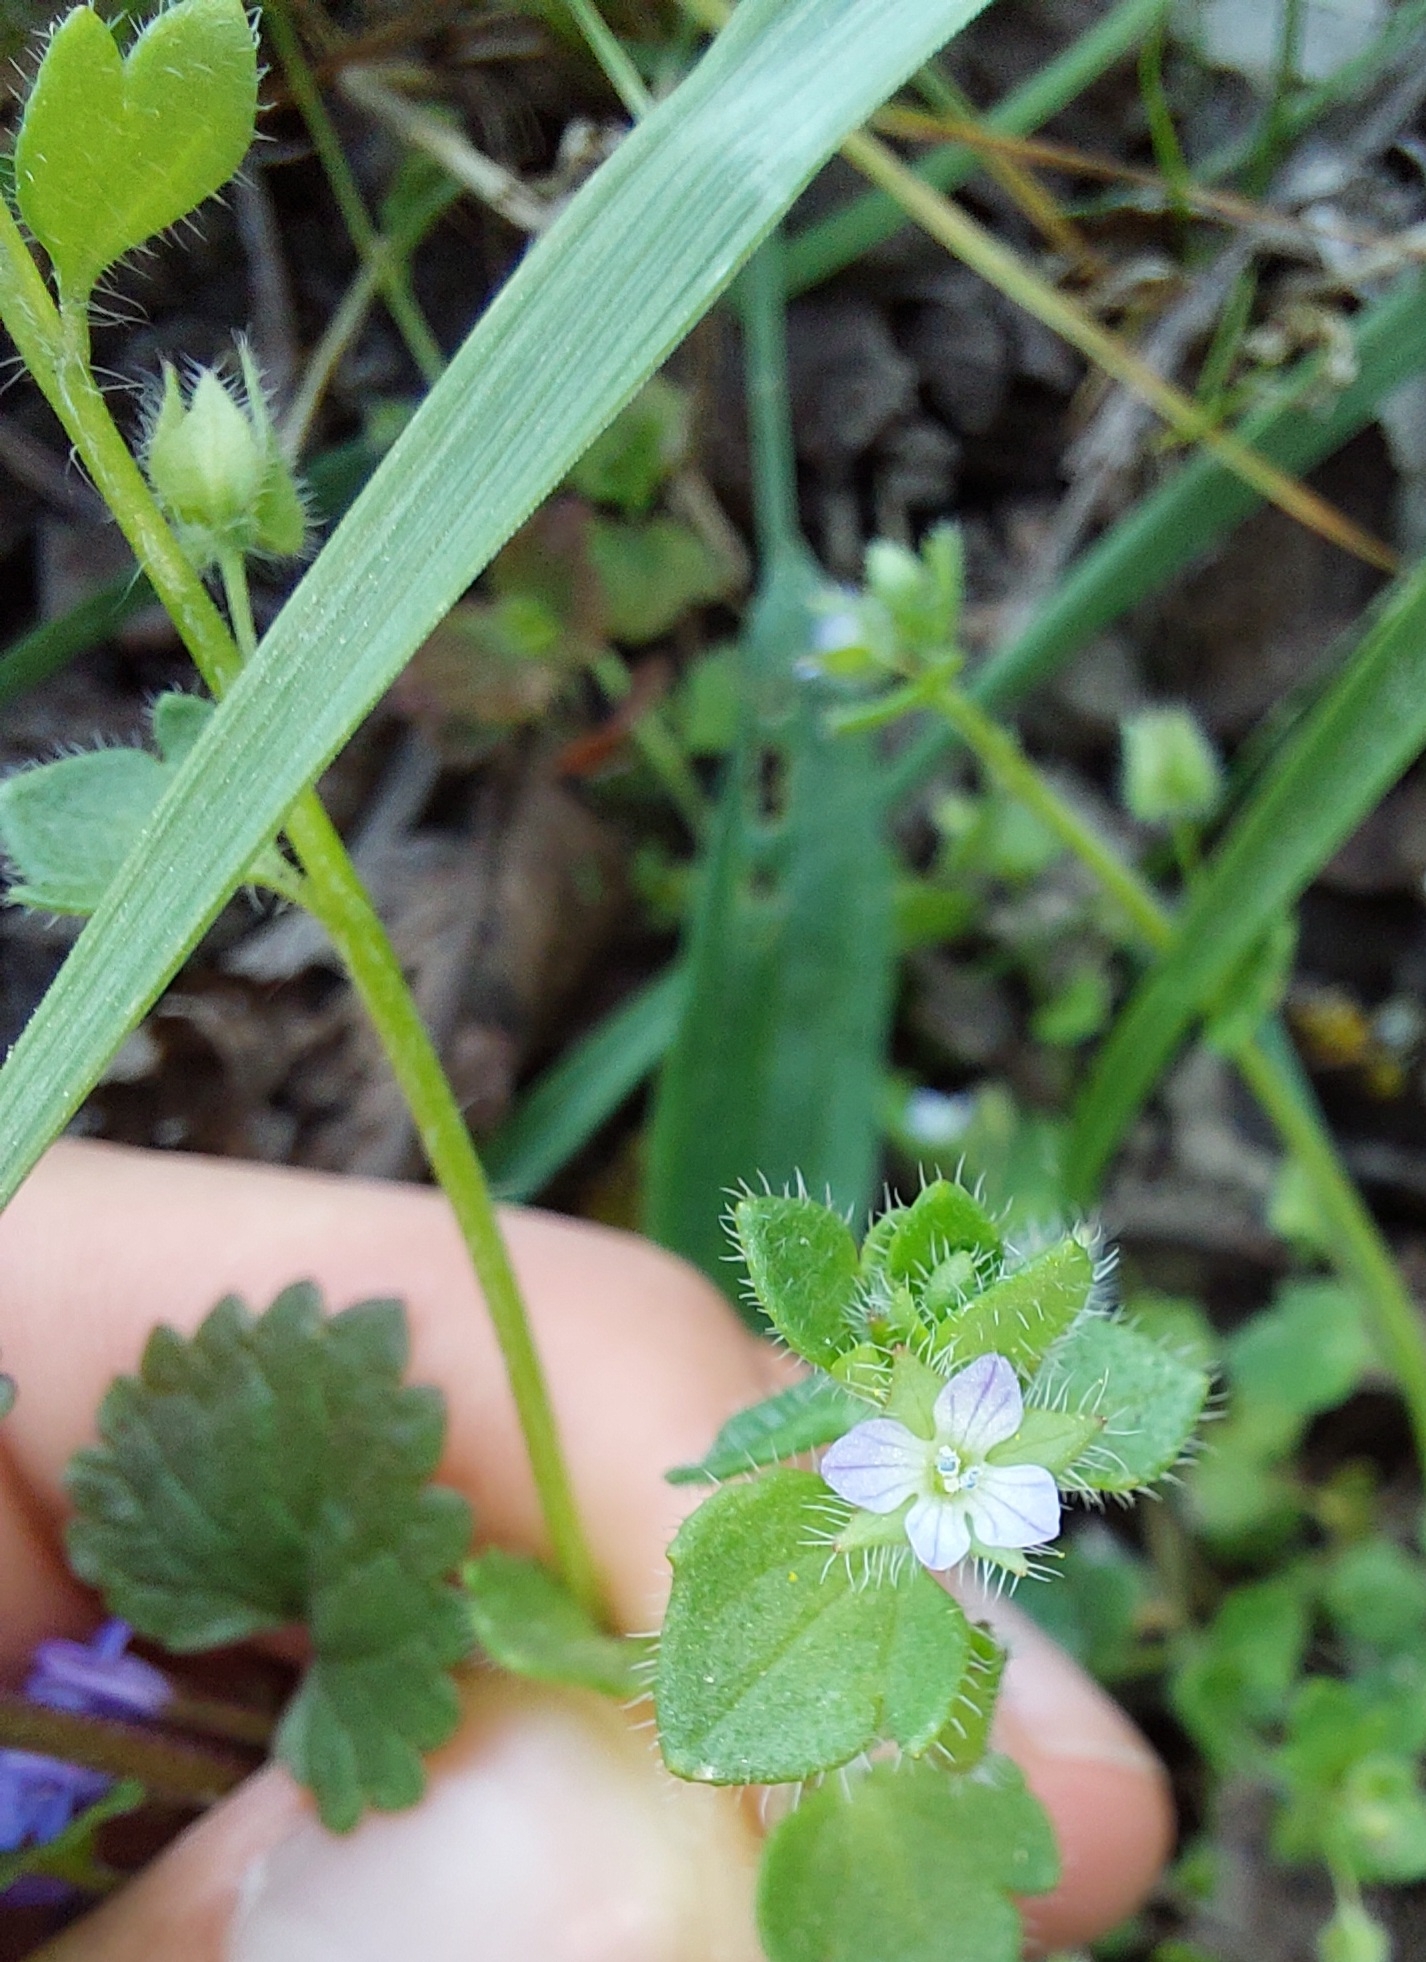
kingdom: Plantae
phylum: Tracheophyta
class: Magnoliopsida
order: Lamiales
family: Plantaginaceae
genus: Veronica
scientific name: Veronica sublobata
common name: False ivy-leaved speedwell
